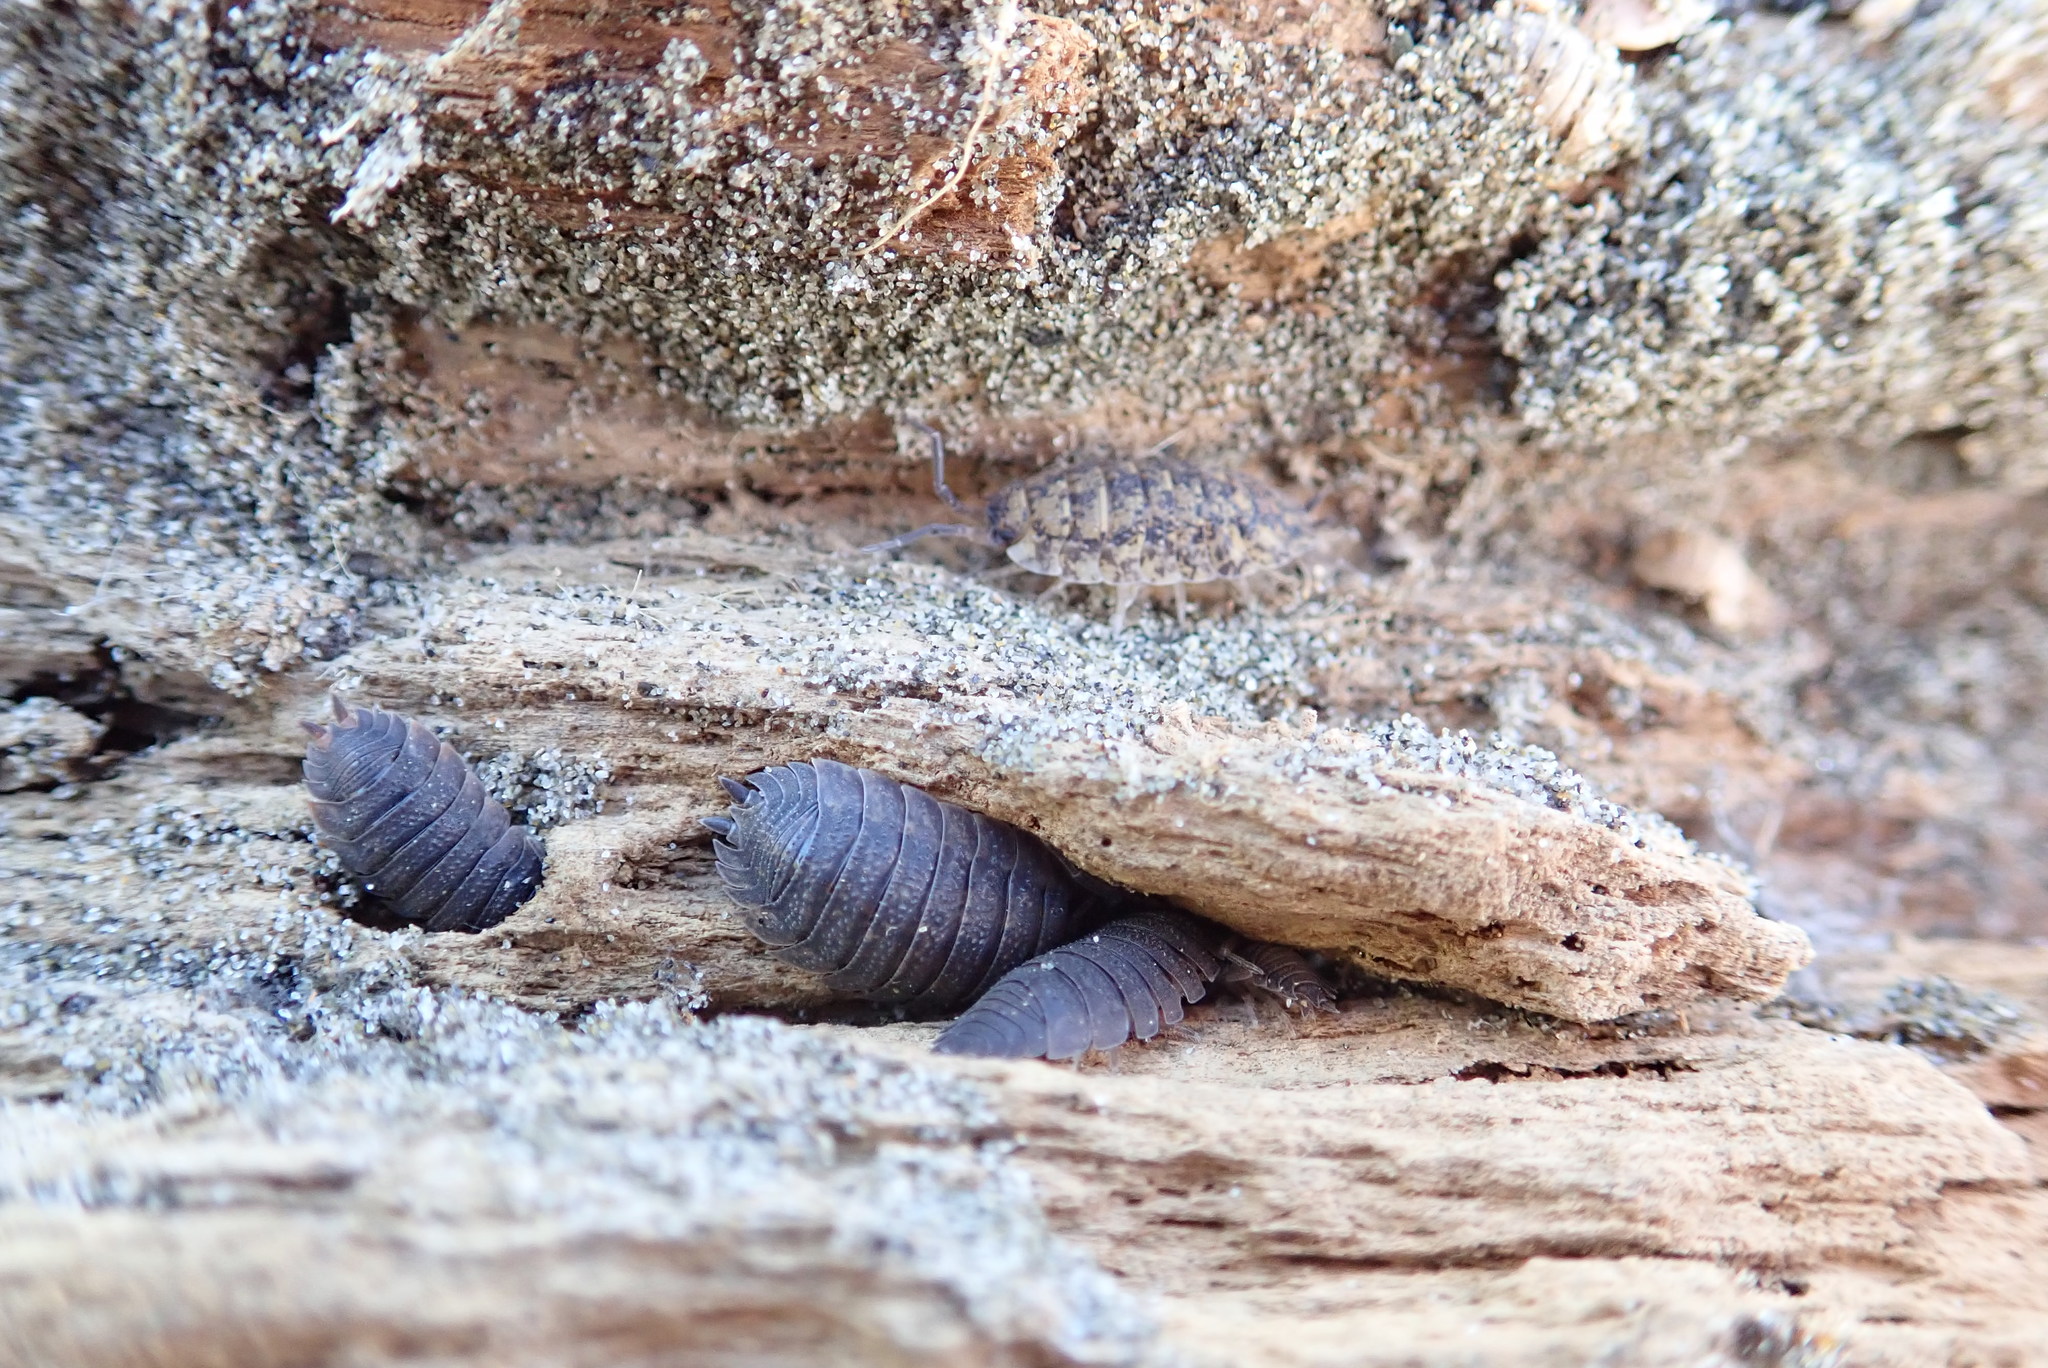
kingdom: Animalia
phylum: Arthropoda
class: Malacostraca
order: Isopoda
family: Porcellionidae
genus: Porcellio
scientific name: Porcellio scaber
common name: Common rough woodlouse
